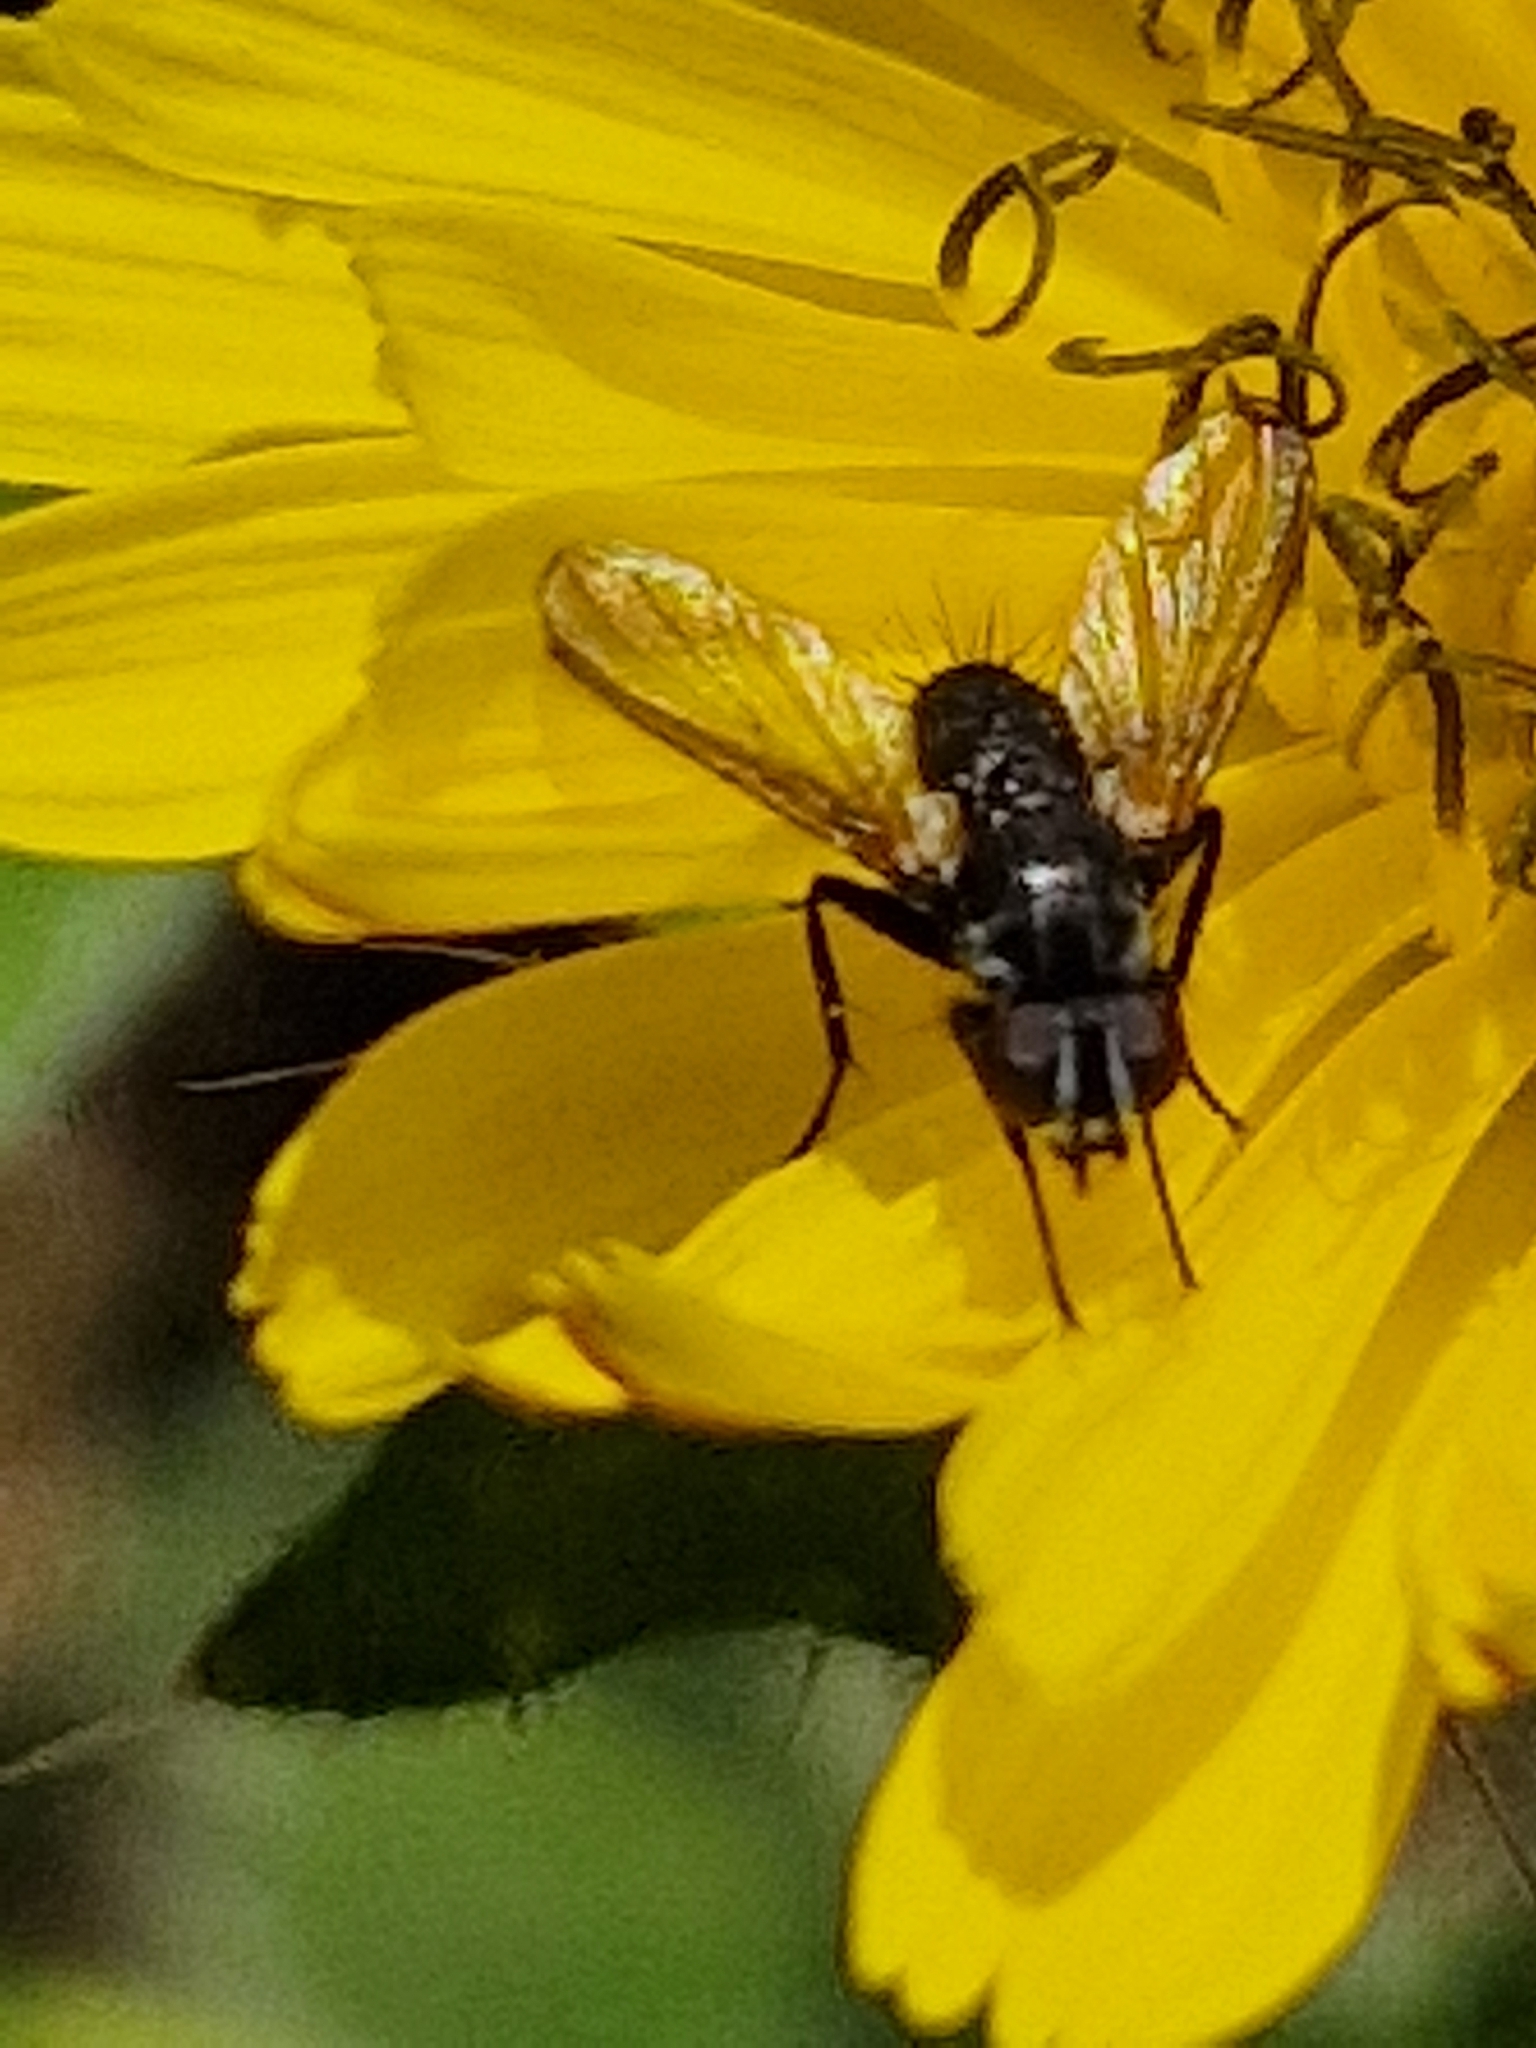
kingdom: Animalia
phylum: Arthropoda
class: Insecta
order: Diptera
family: Tachinidae
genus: Phania
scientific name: Phania funesta
